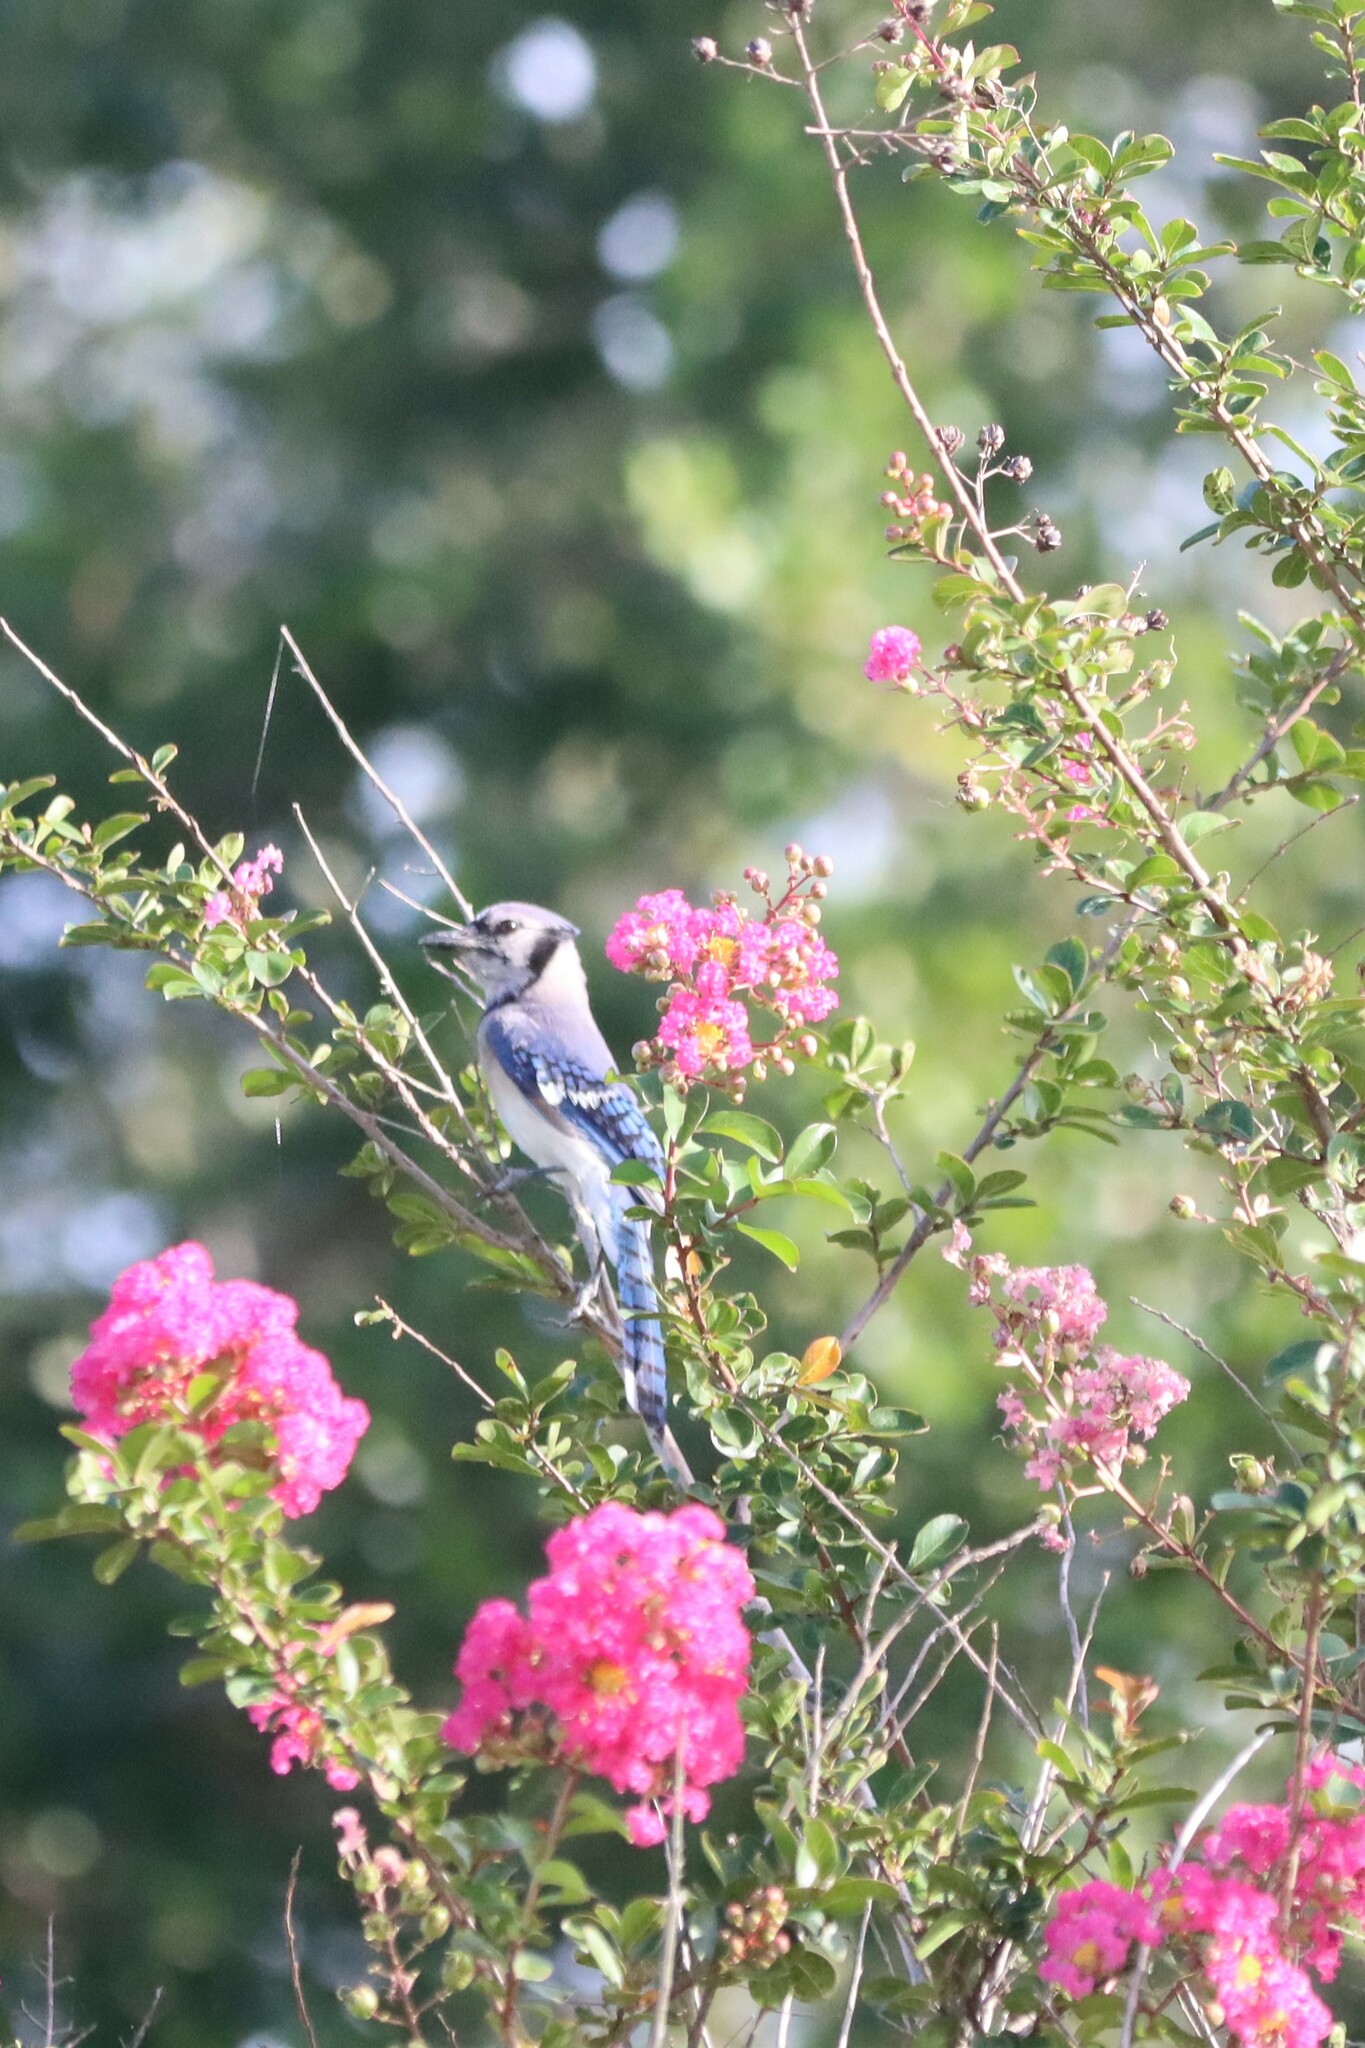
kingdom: Animalia
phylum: Chordata
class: Aves
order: Passeriformes
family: Corvidae
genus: Cyanocitta
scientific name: Cyanocitta cristata
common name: Blue jay
